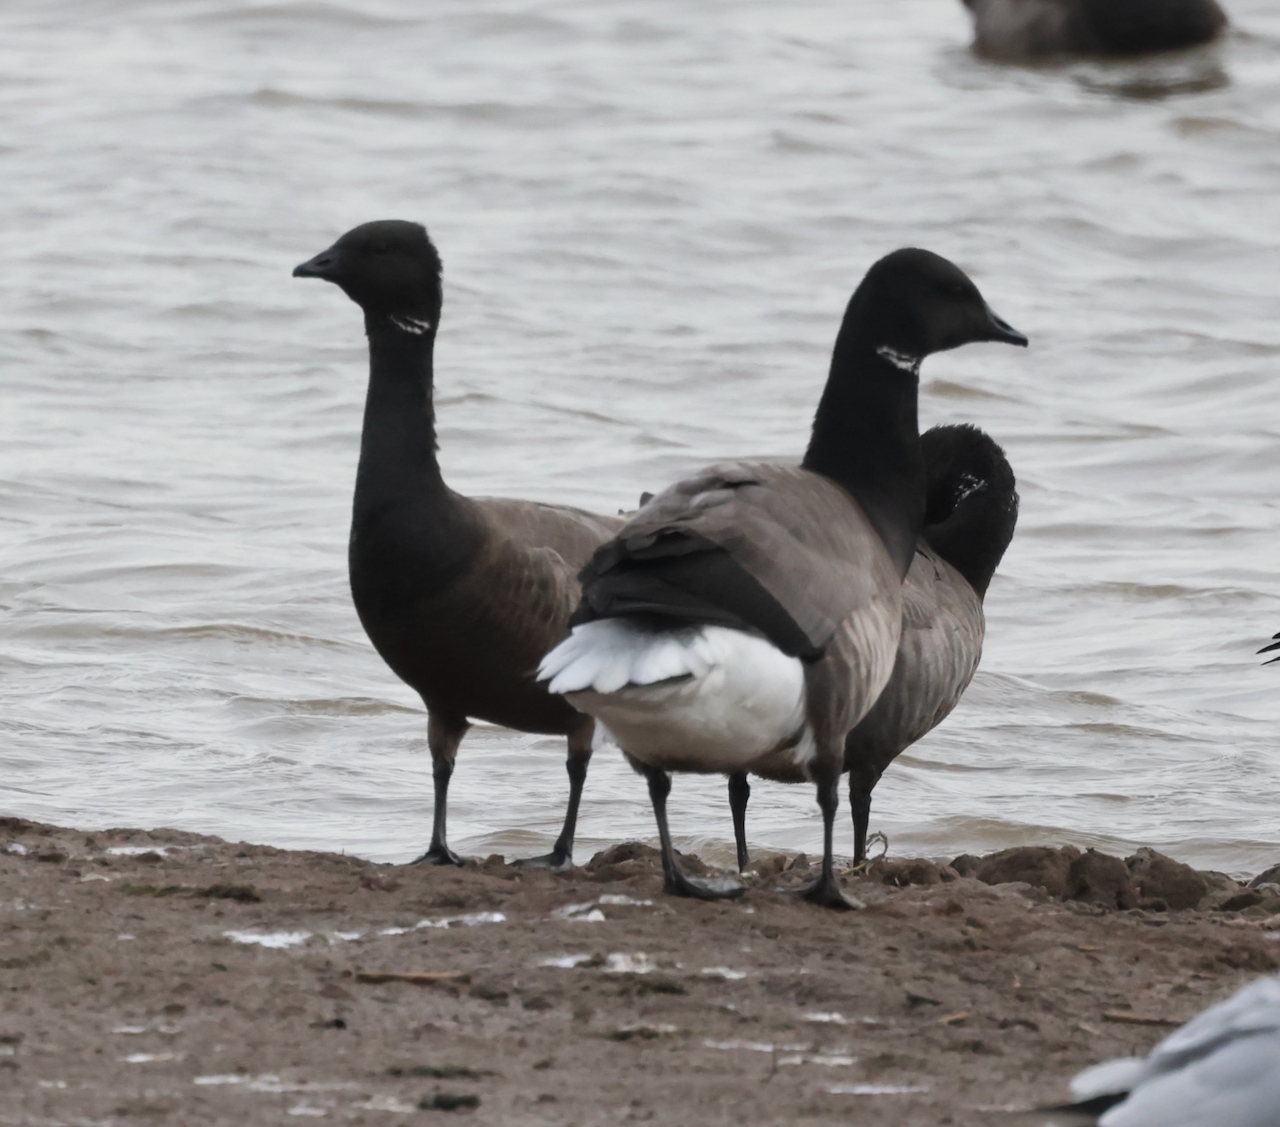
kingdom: Animalia
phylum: Chordata
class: Aves
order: Anseriformes
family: Anatidae
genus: Branta
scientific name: Branta bernicla
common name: Brant goose
